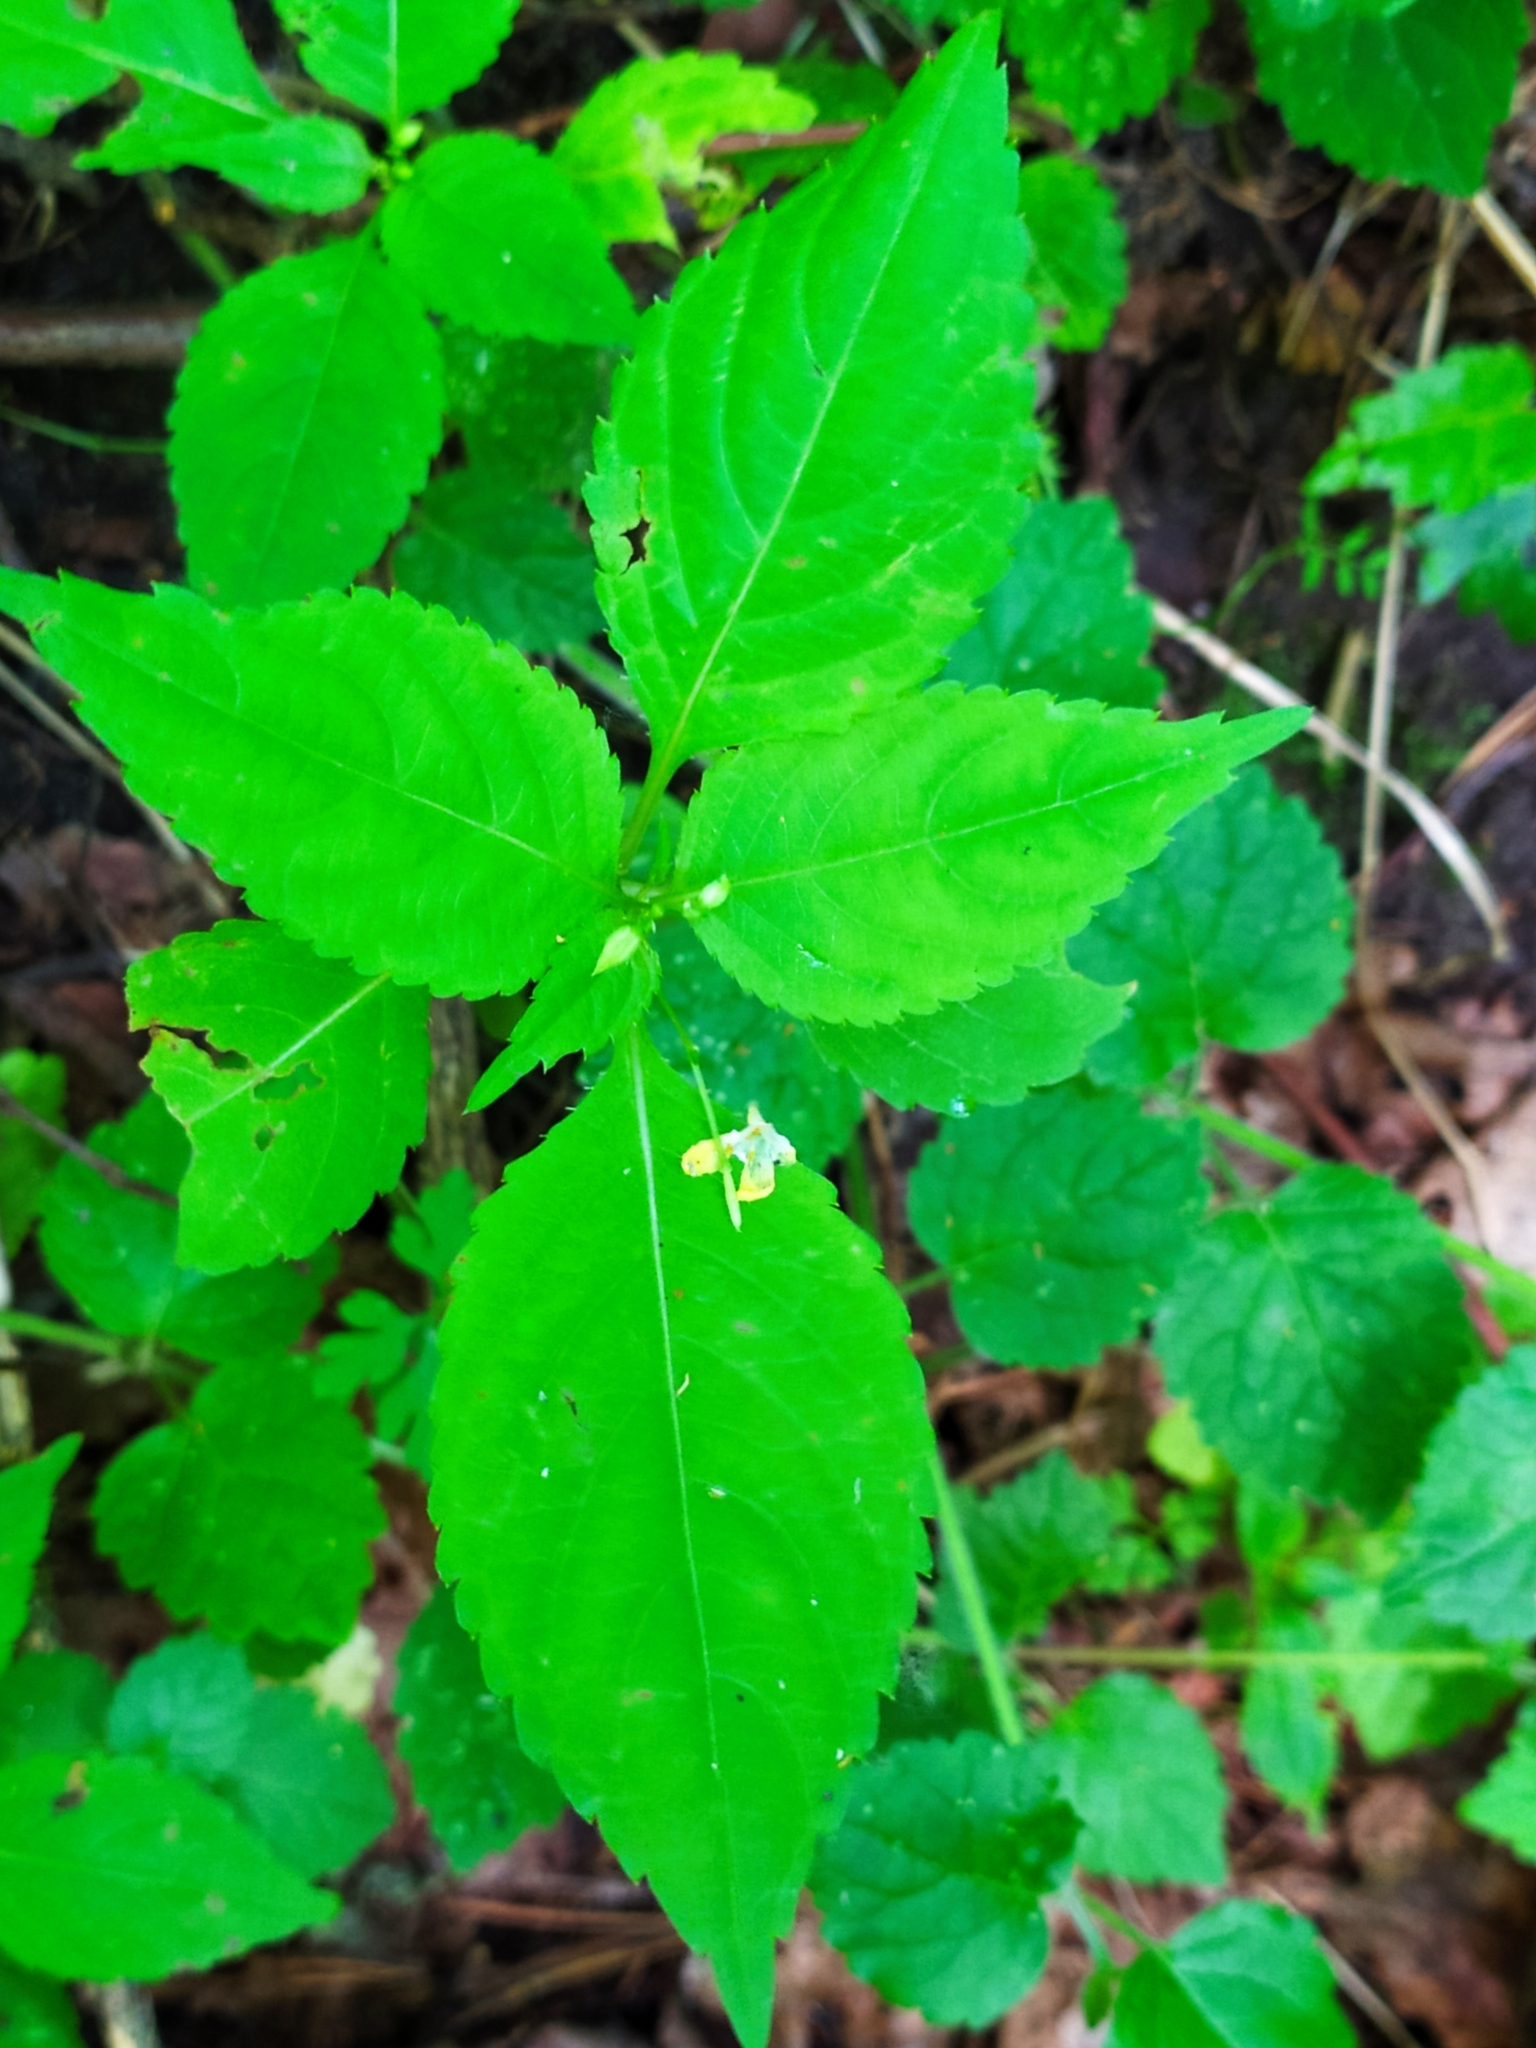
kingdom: Plantae
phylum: Tracheophyta
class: Magnoliopsida
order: Ericales
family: Balsaminaceae
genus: Impatiens
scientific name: Impatiens parviflora
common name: Small balsam
